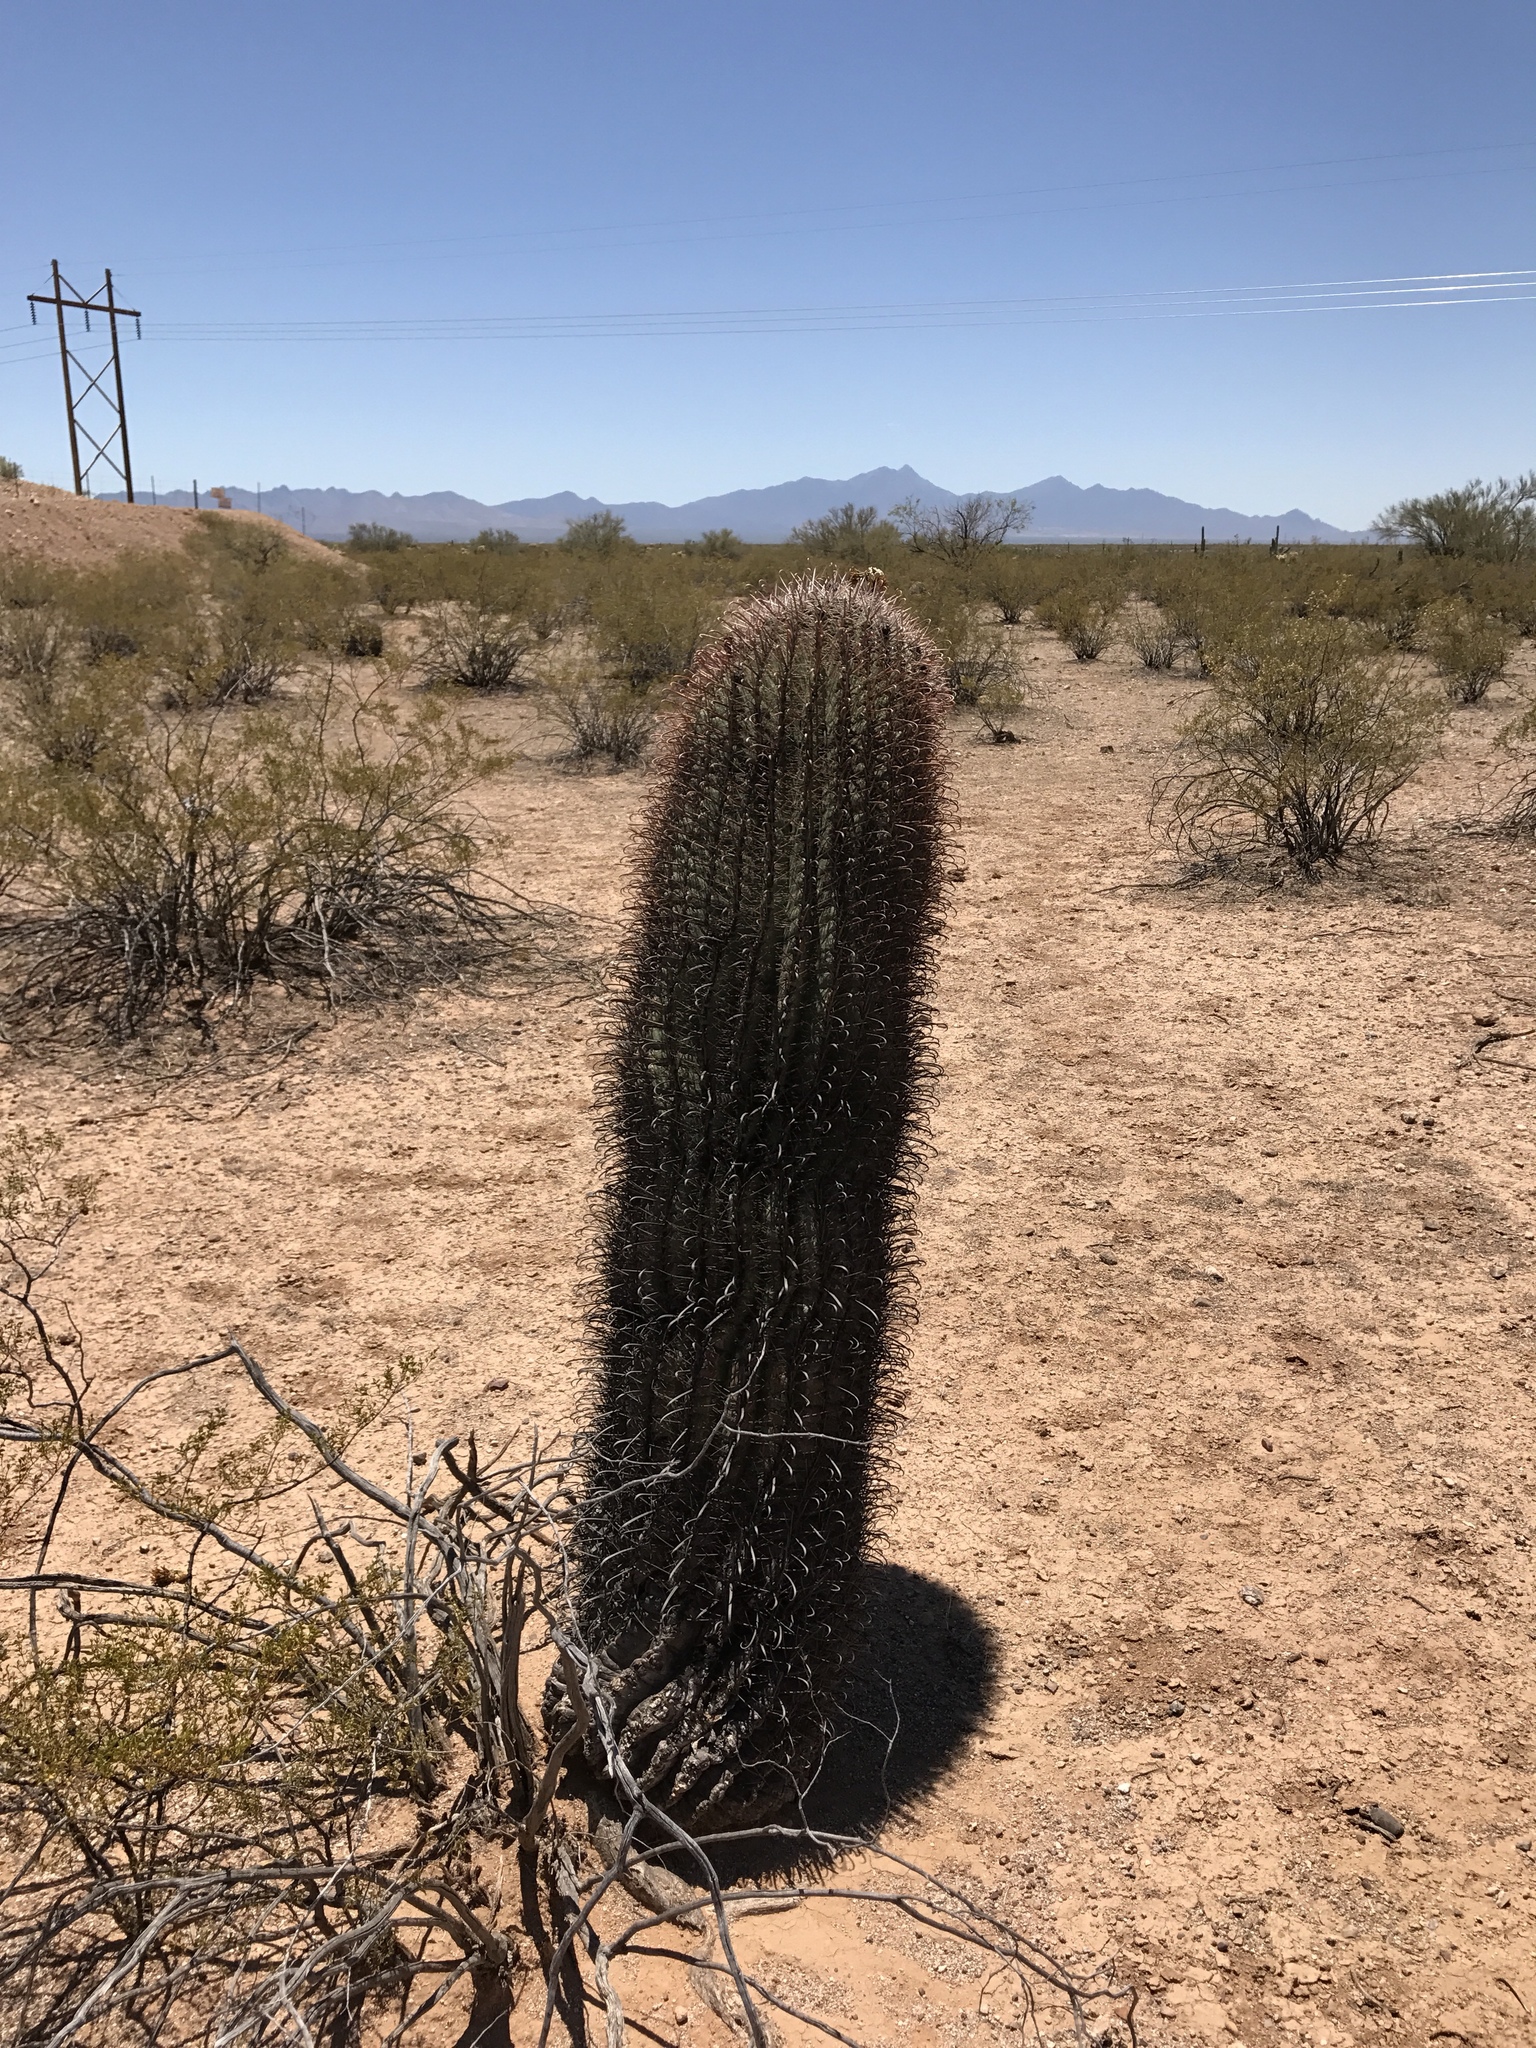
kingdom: Plantae
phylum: Tracheophyta
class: Magnoliopsida
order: Caryophyllales
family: Cactaceae
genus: Carnegiea
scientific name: Carnegiea gigantea
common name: Saguaro
